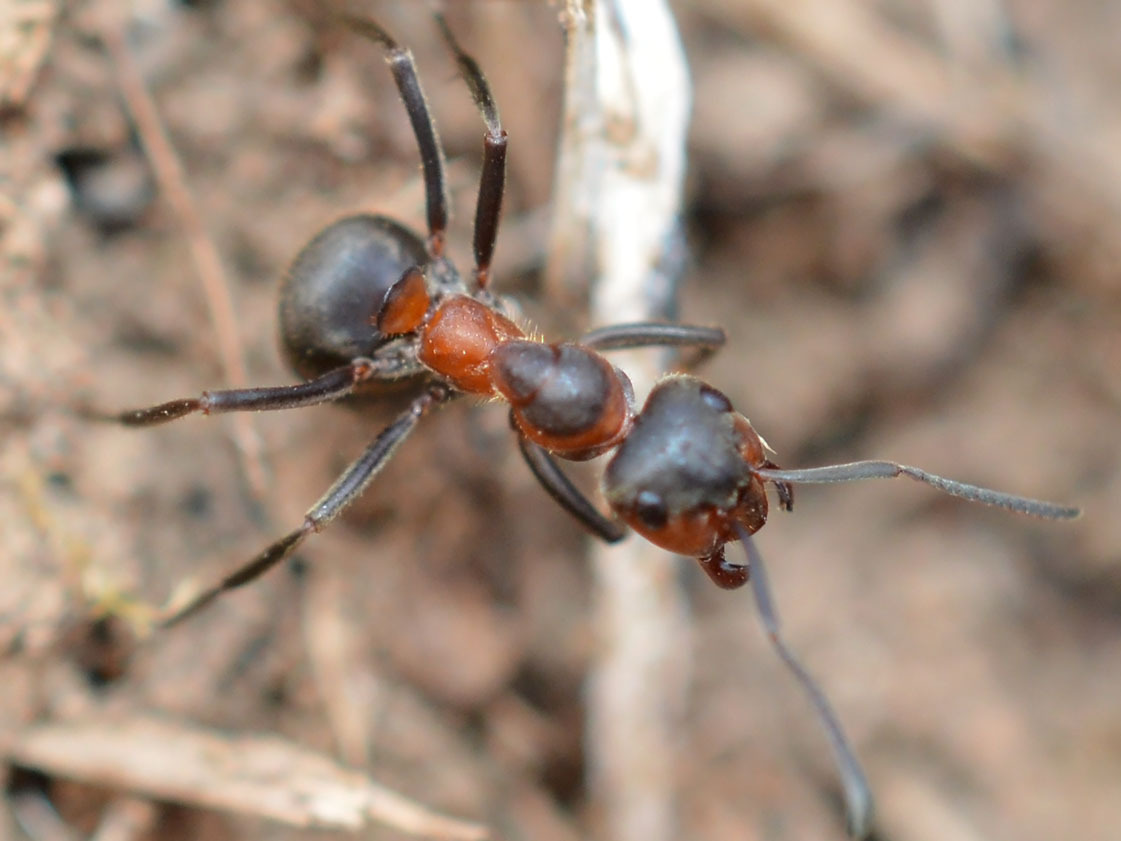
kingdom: Animalia
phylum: Arthropoda
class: Insecta
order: Hymenoptera
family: Formicidae
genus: Formica
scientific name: Formica pratensis
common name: European red wood ant
